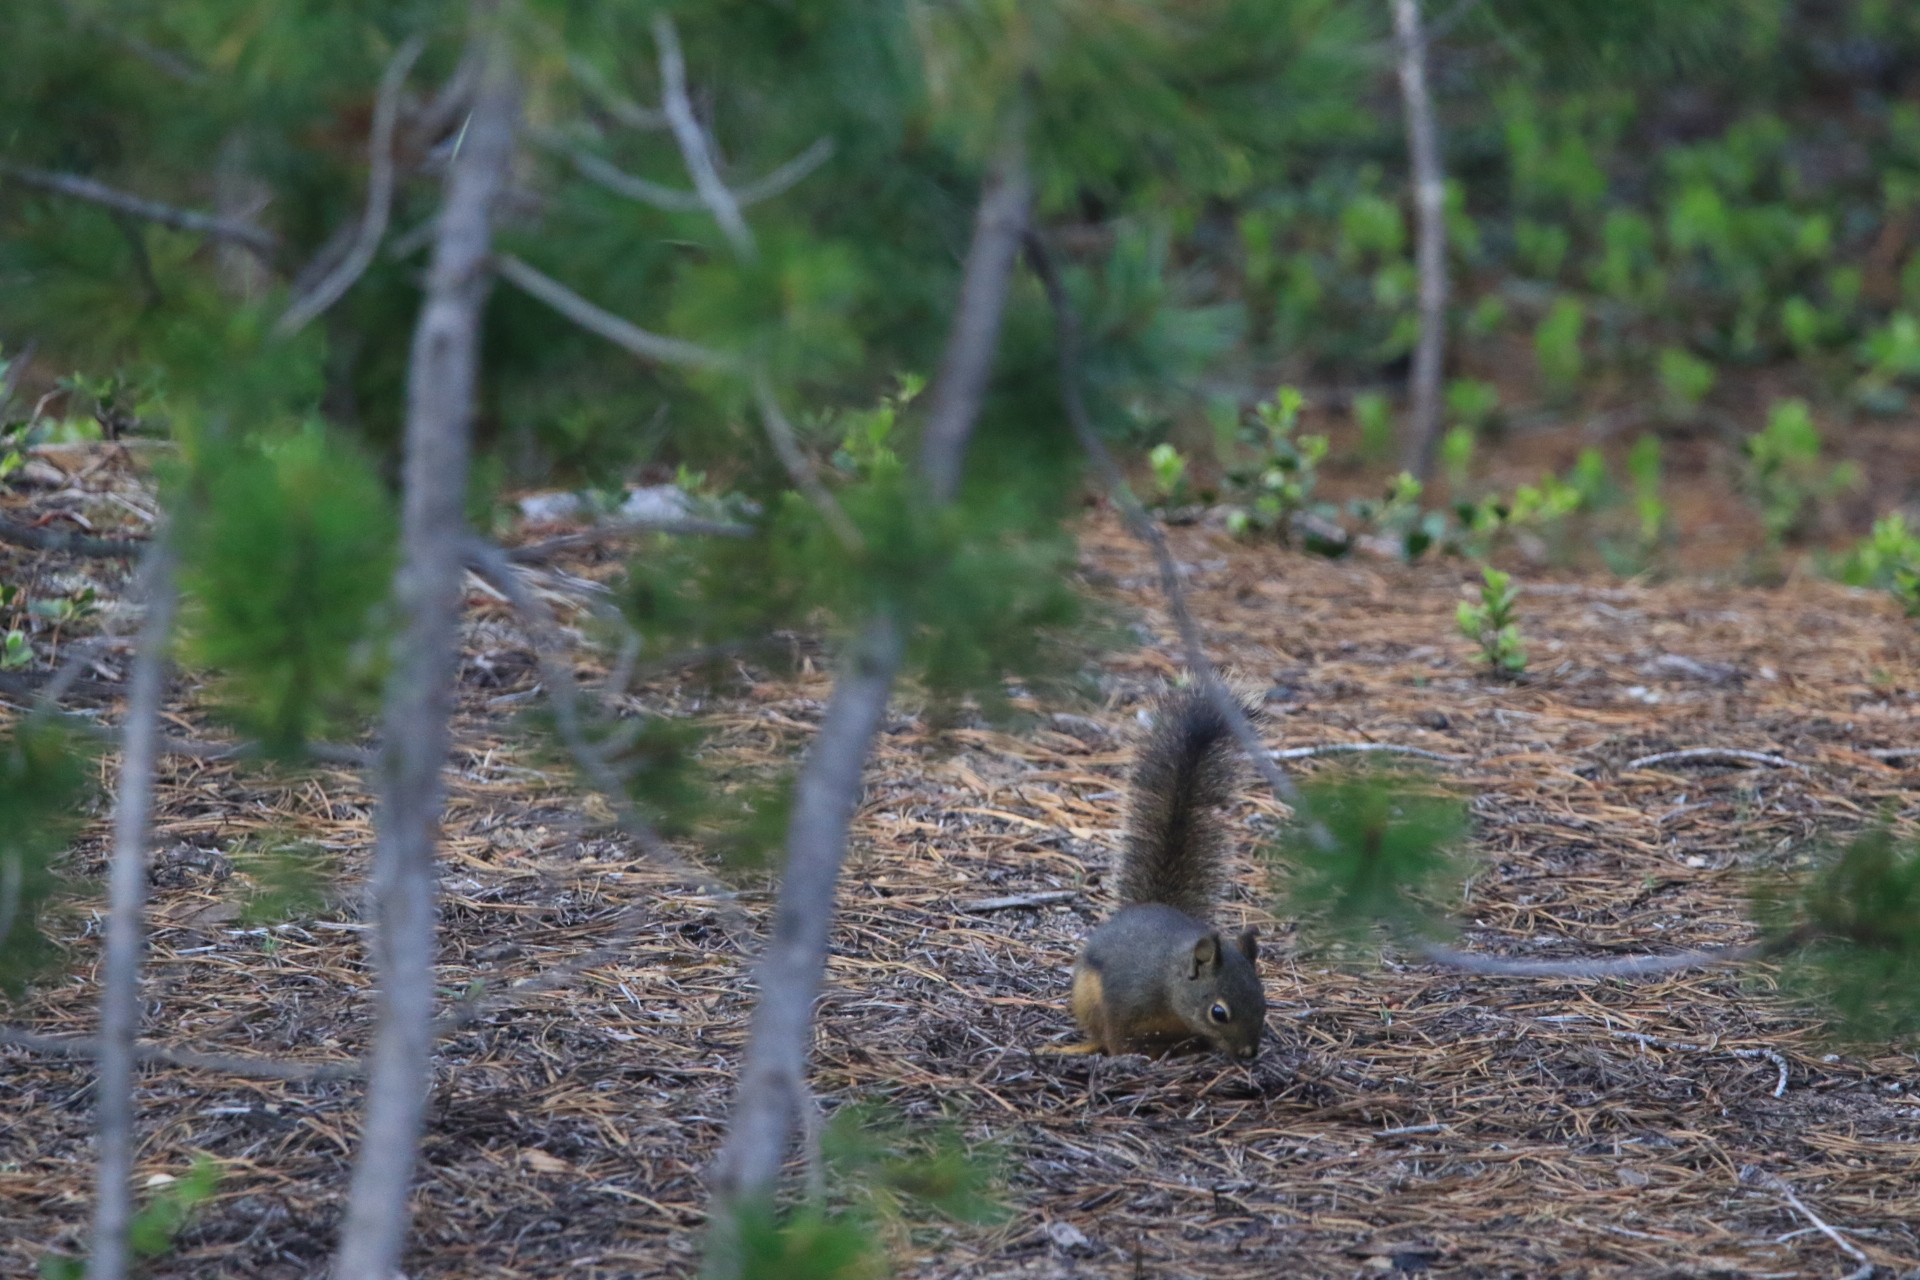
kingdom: Animalia
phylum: Chordata
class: Mammalia
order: Rodentia
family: Sciuridae
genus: Tamiasciurus
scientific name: Tamiasciurus douglasii
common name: Douglas's squirrel
